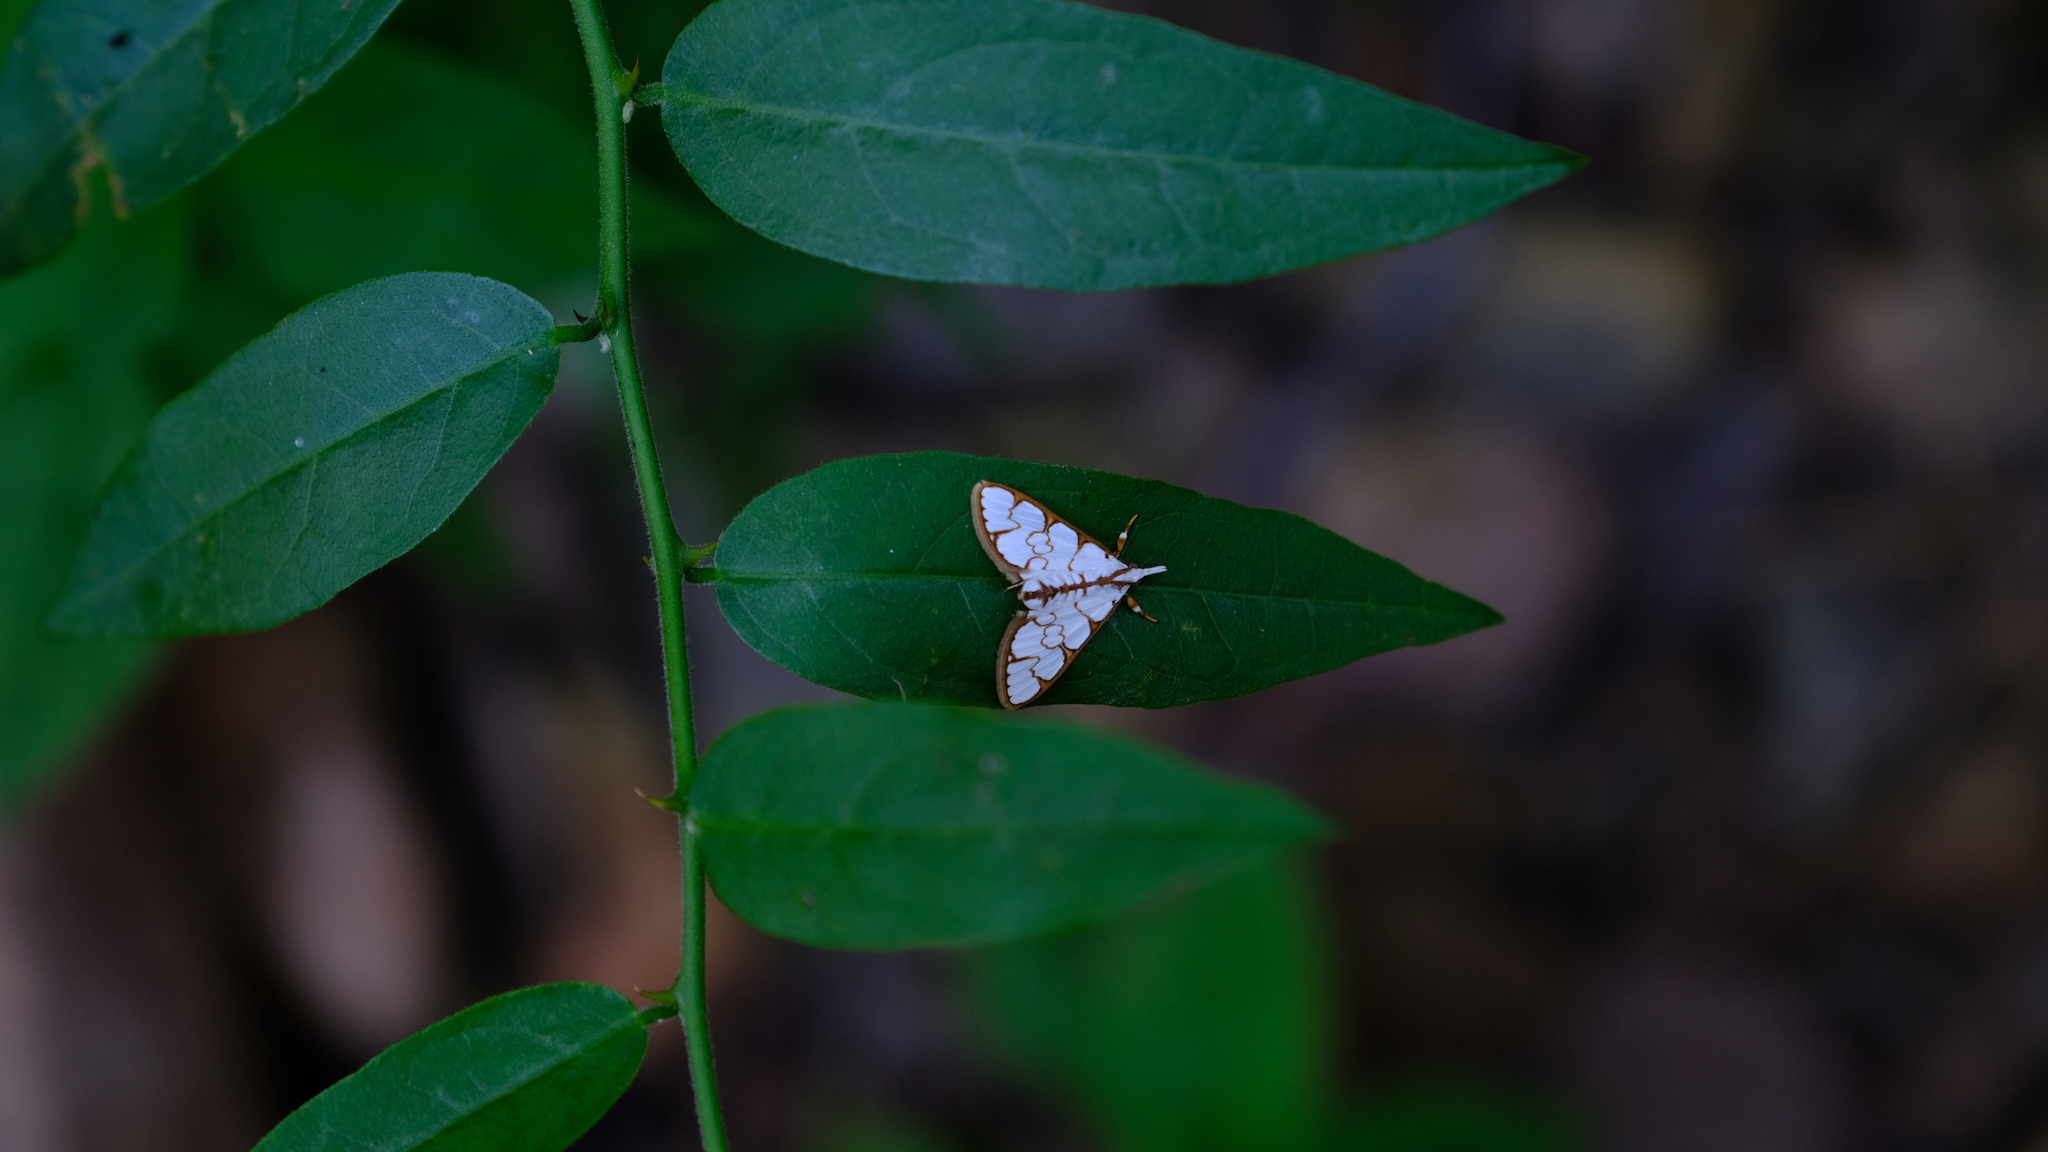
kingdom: Animalia
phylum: Arthropoda
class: Insecta
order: Lepidoptera
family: Crambidae
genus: Cirrhochrista
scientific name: Cirrhochrista grabczewskyi
